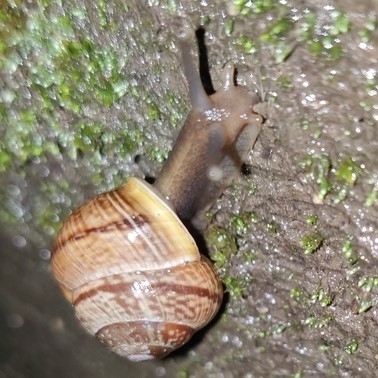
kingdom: Animalia
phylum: Mollusca
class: Gastropoda
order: Stylommatophora
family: Helicidae
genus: Arianta
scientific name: Arianta arbustorum
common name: Copse snail
